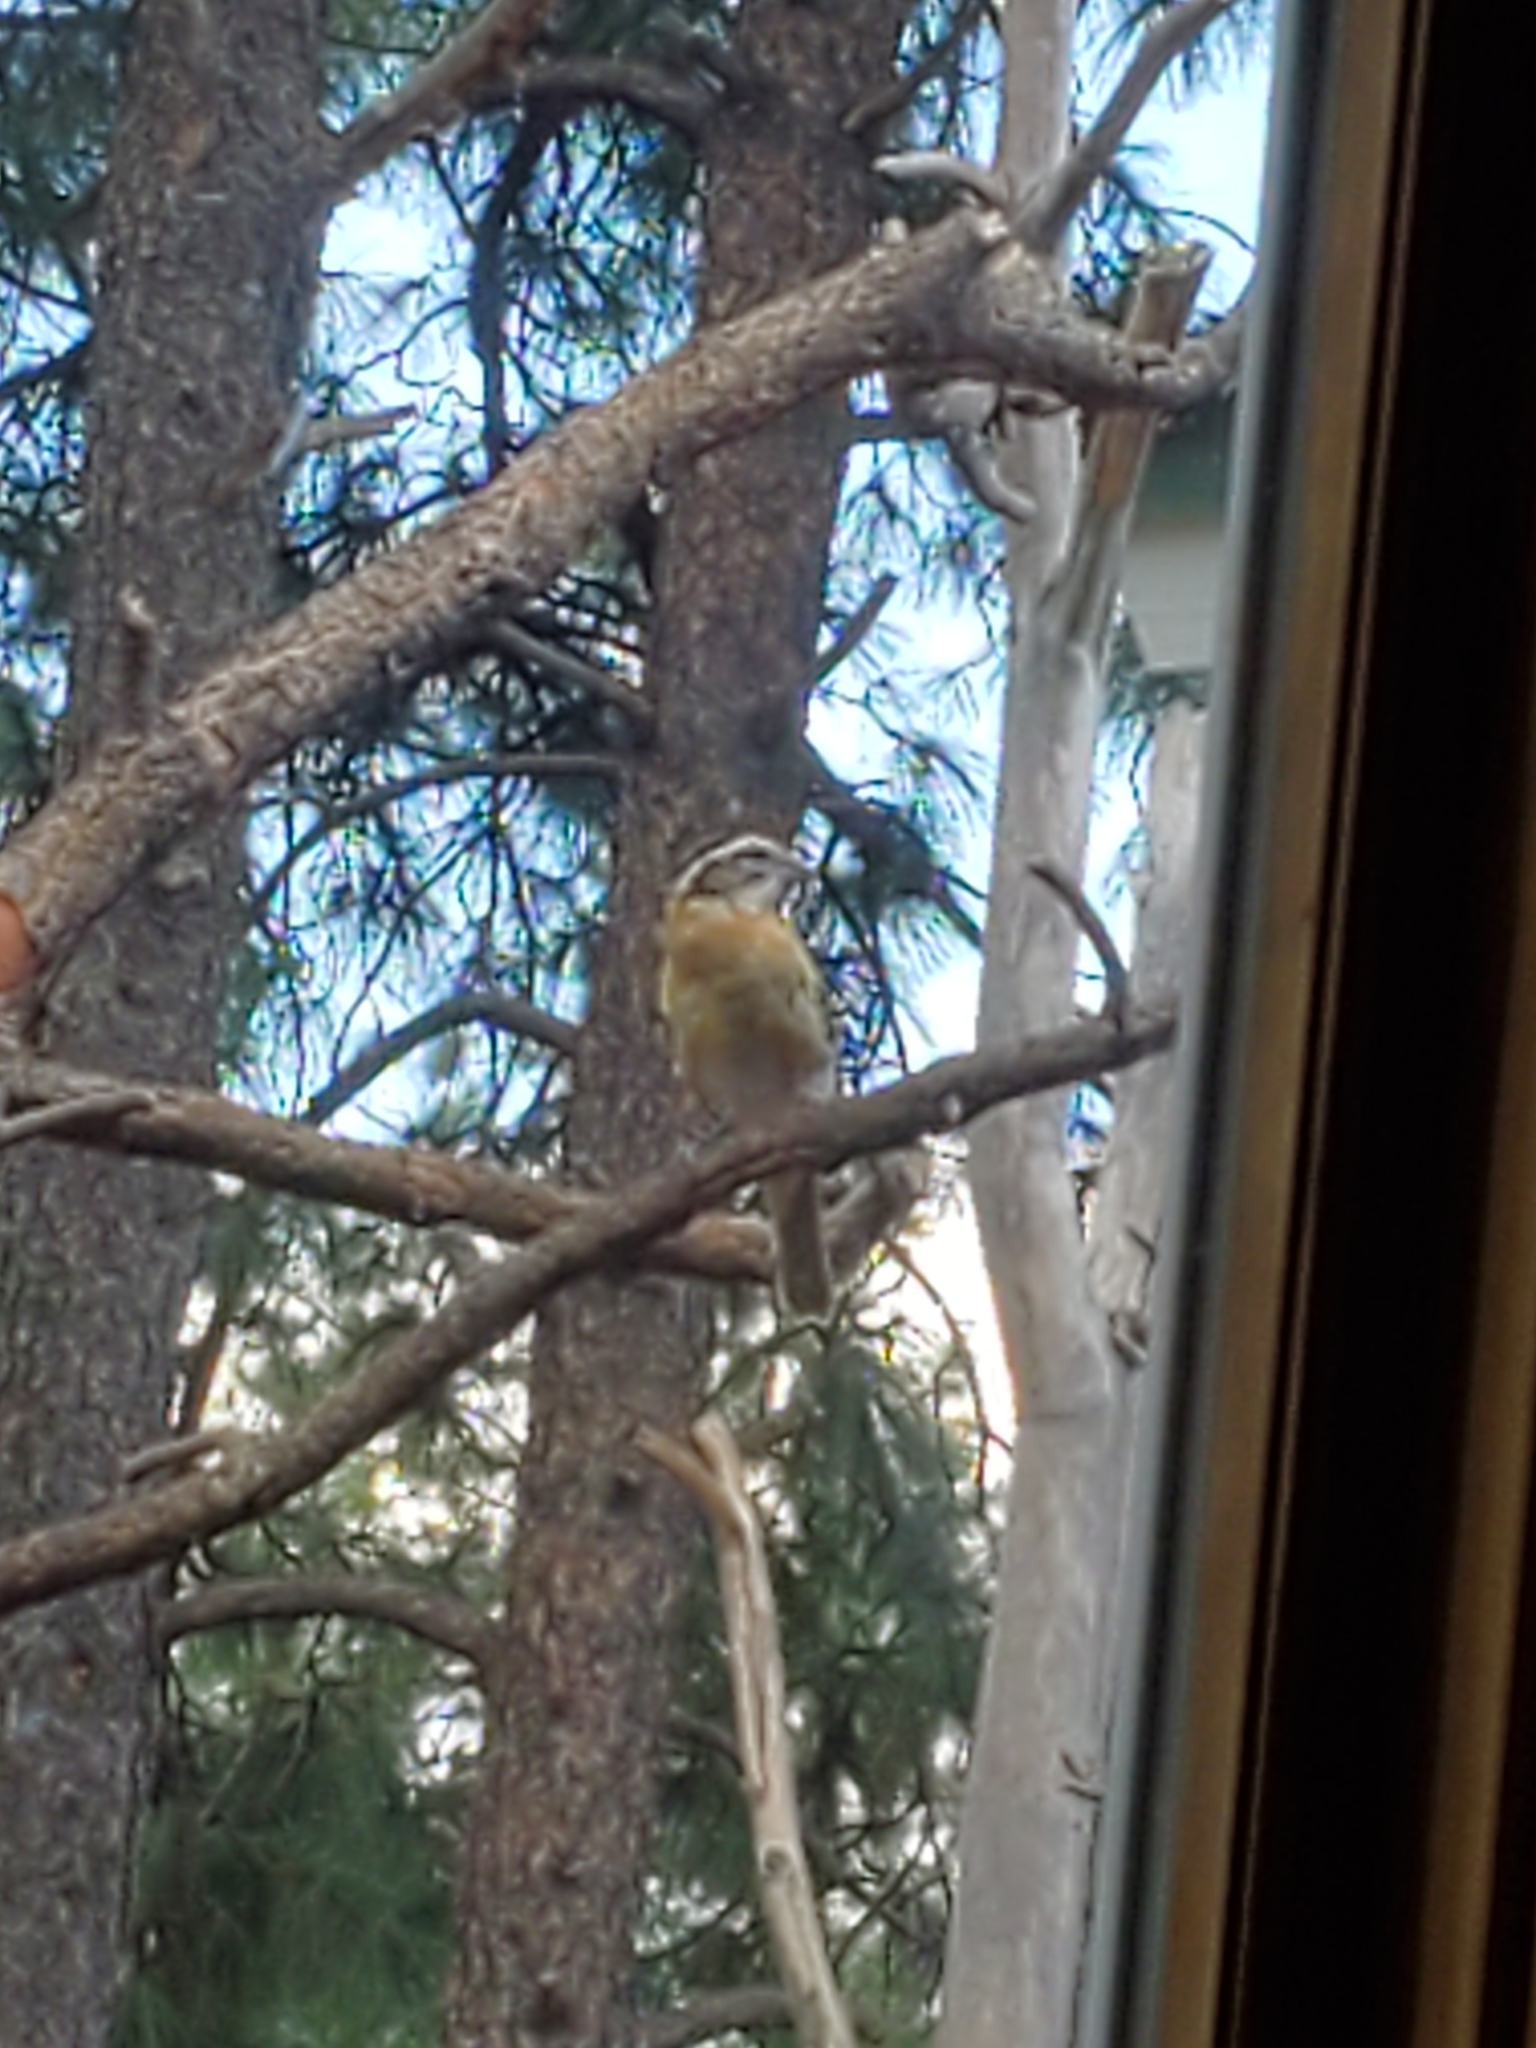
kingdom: Animalia
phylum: Chordata
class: Aves
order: Passeriformes
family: Cardinalidae
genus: Pheucticus
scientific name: Pheucticus melanocephalus
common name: Black-headed grosbeak
